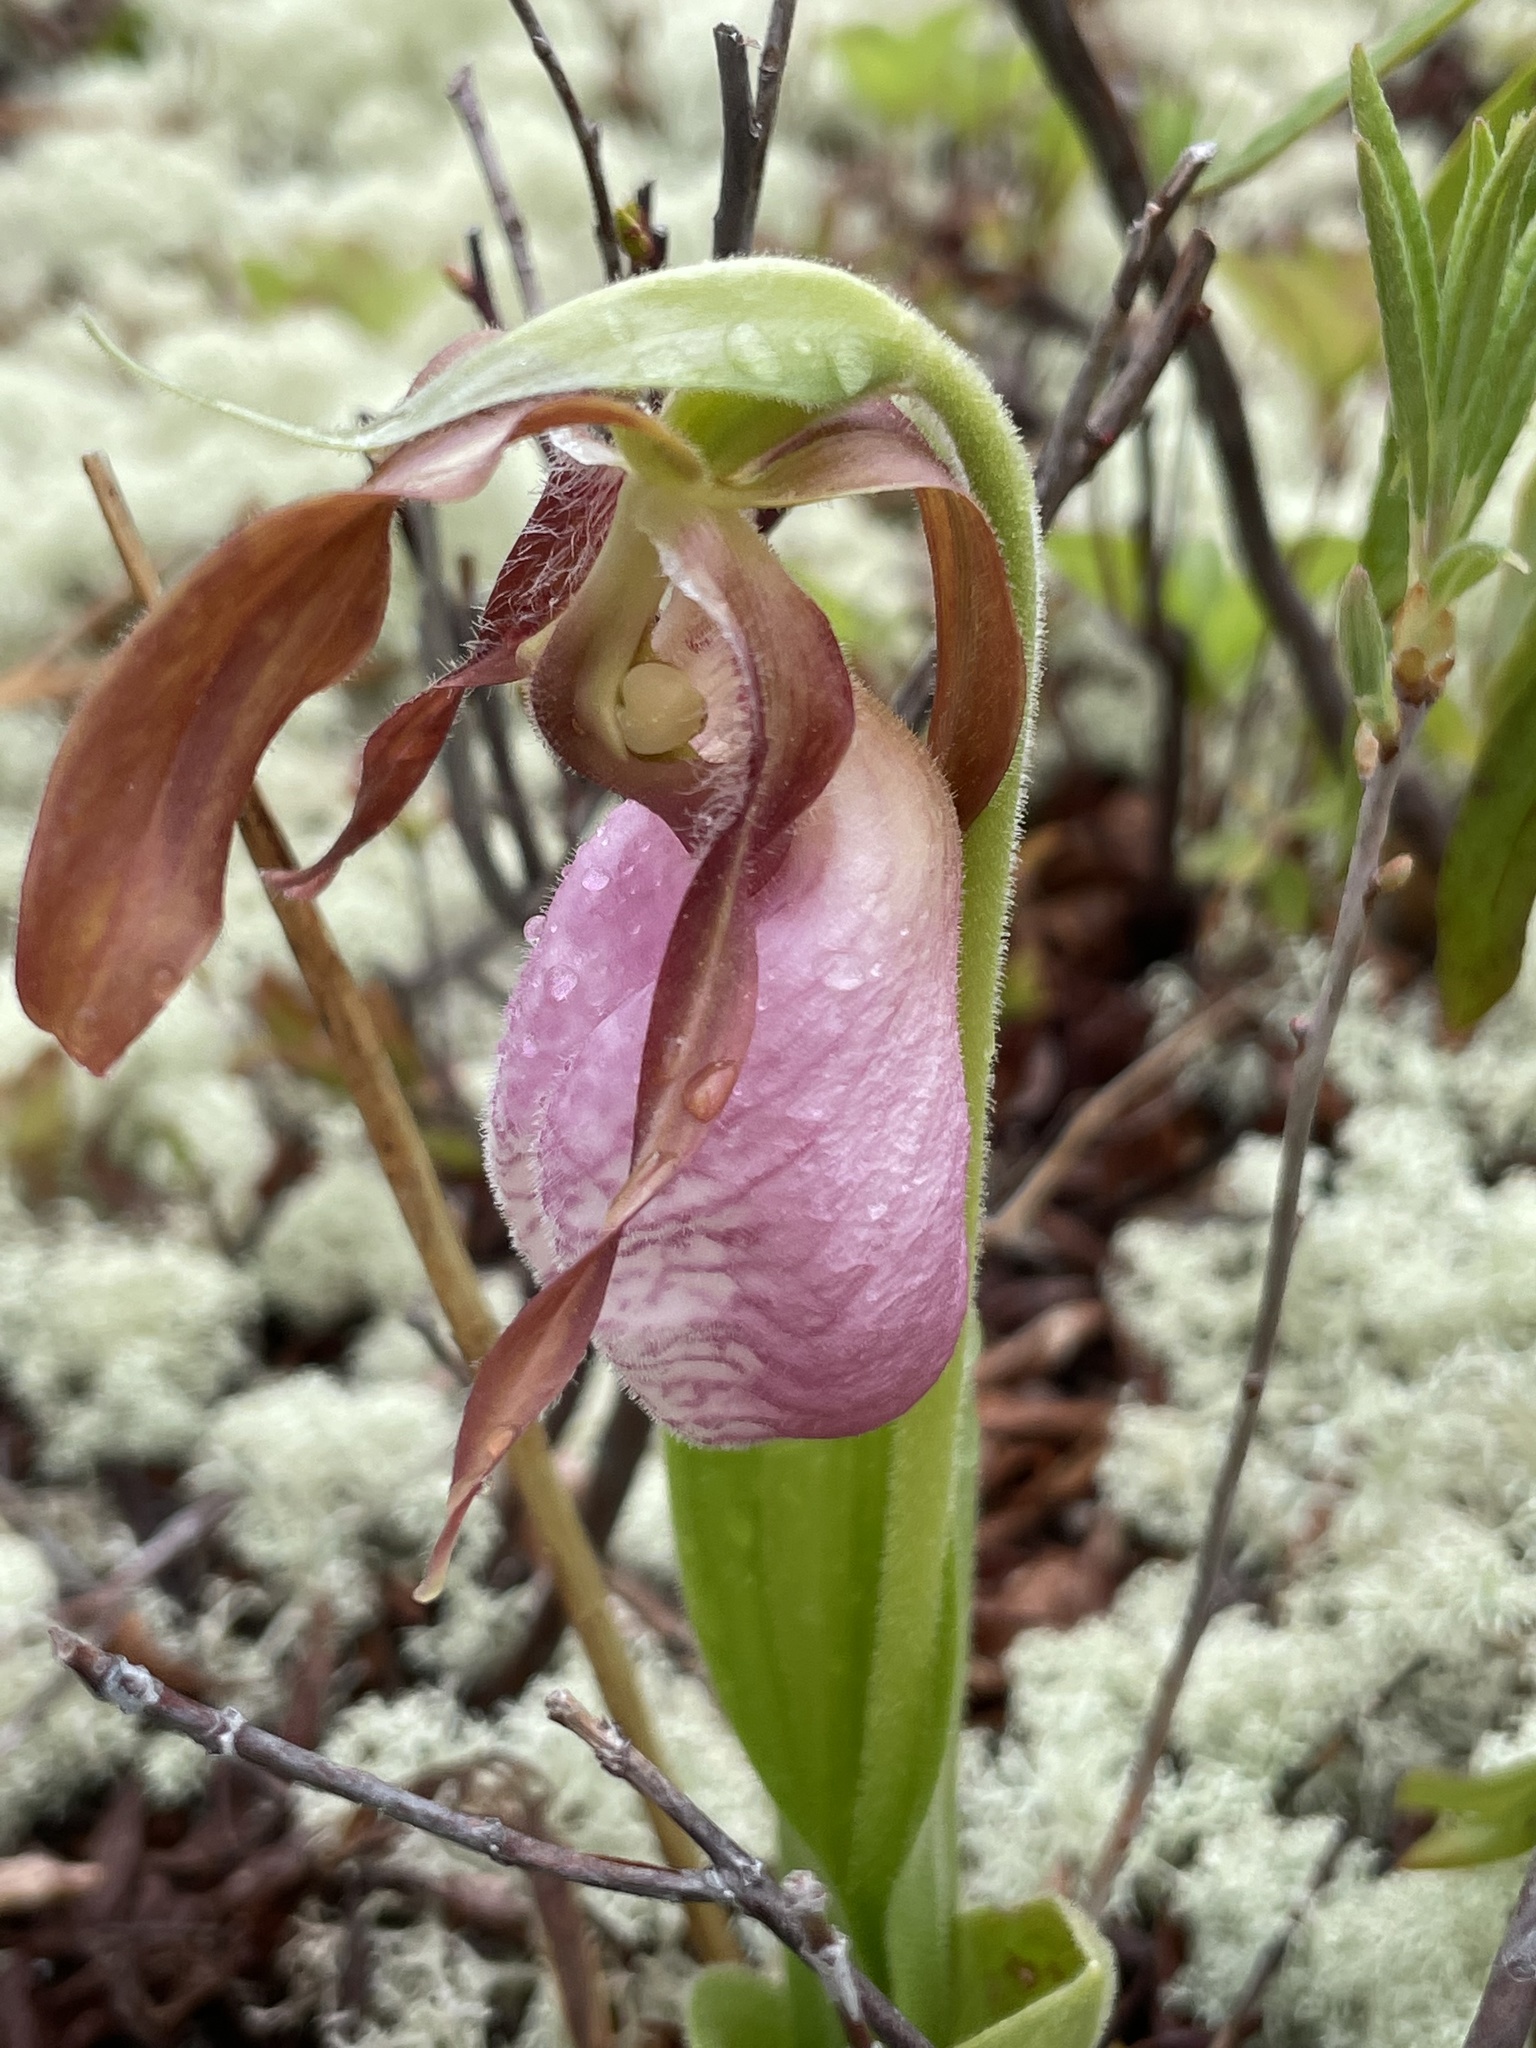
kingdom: Plantae
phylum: Tracheophyta
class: Liliopsida
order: Asparagales
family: Orchidaceae
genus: Cypripedium
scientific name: Cypripedium acaule
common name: Pink lady's-slipper
